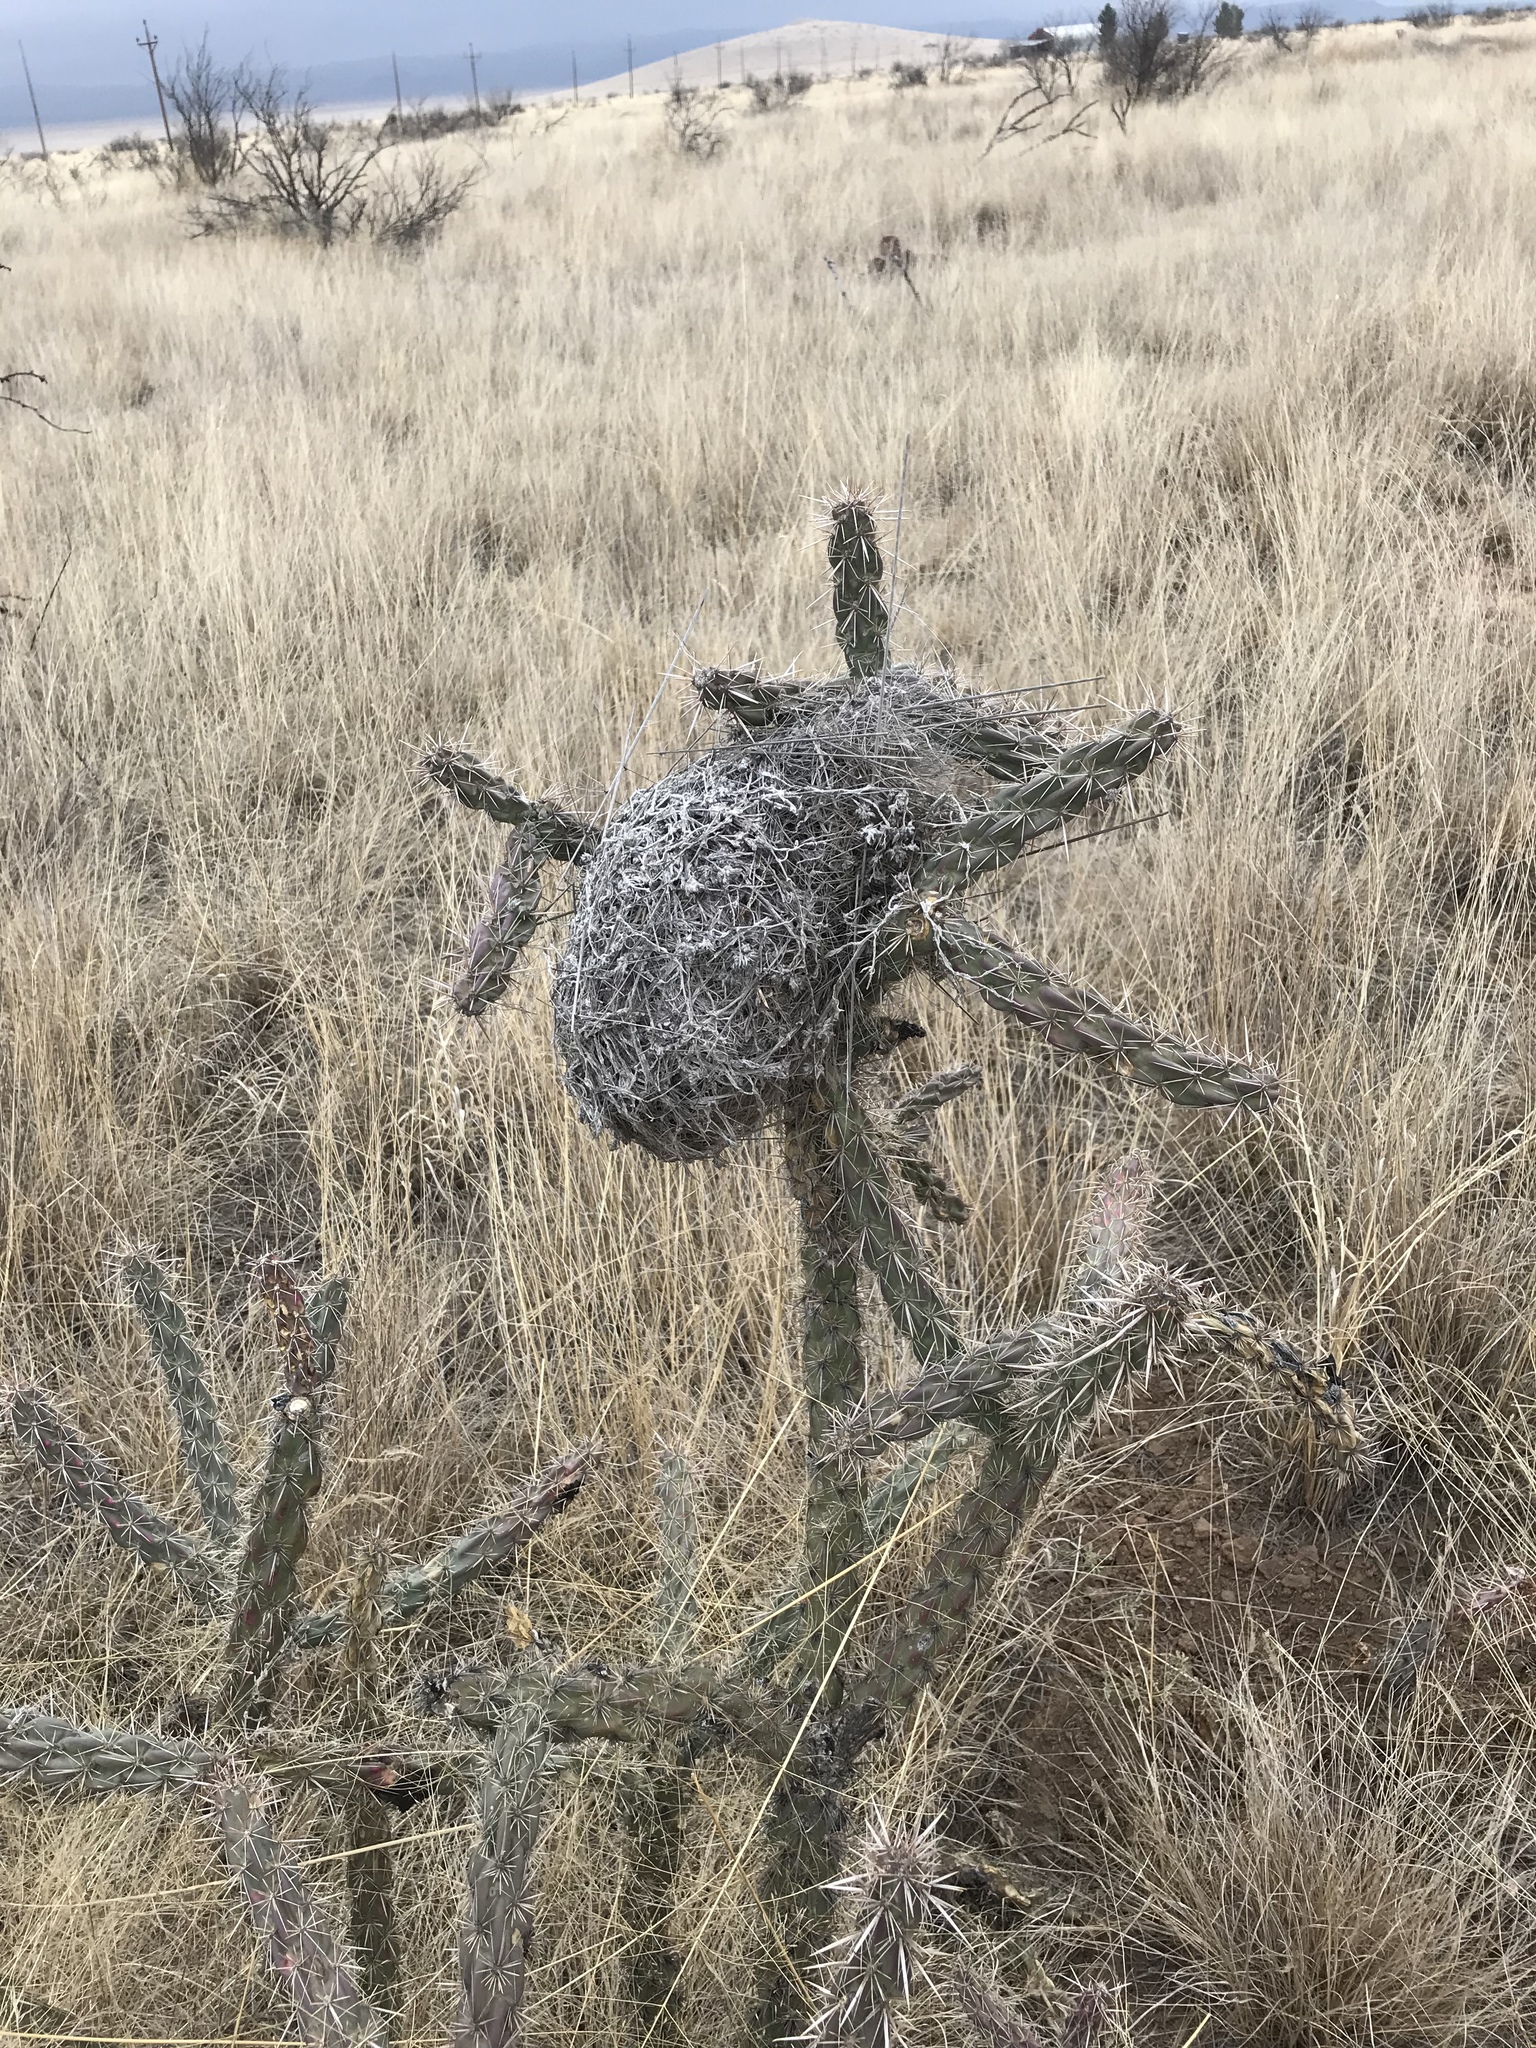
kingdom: Animalia
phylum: Chordata
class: Aves
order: Passeriformes
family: Troglodytidae
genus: Campylorhynchus
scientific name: Campylorhynchus brunneicapillus
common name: Cactus wren
